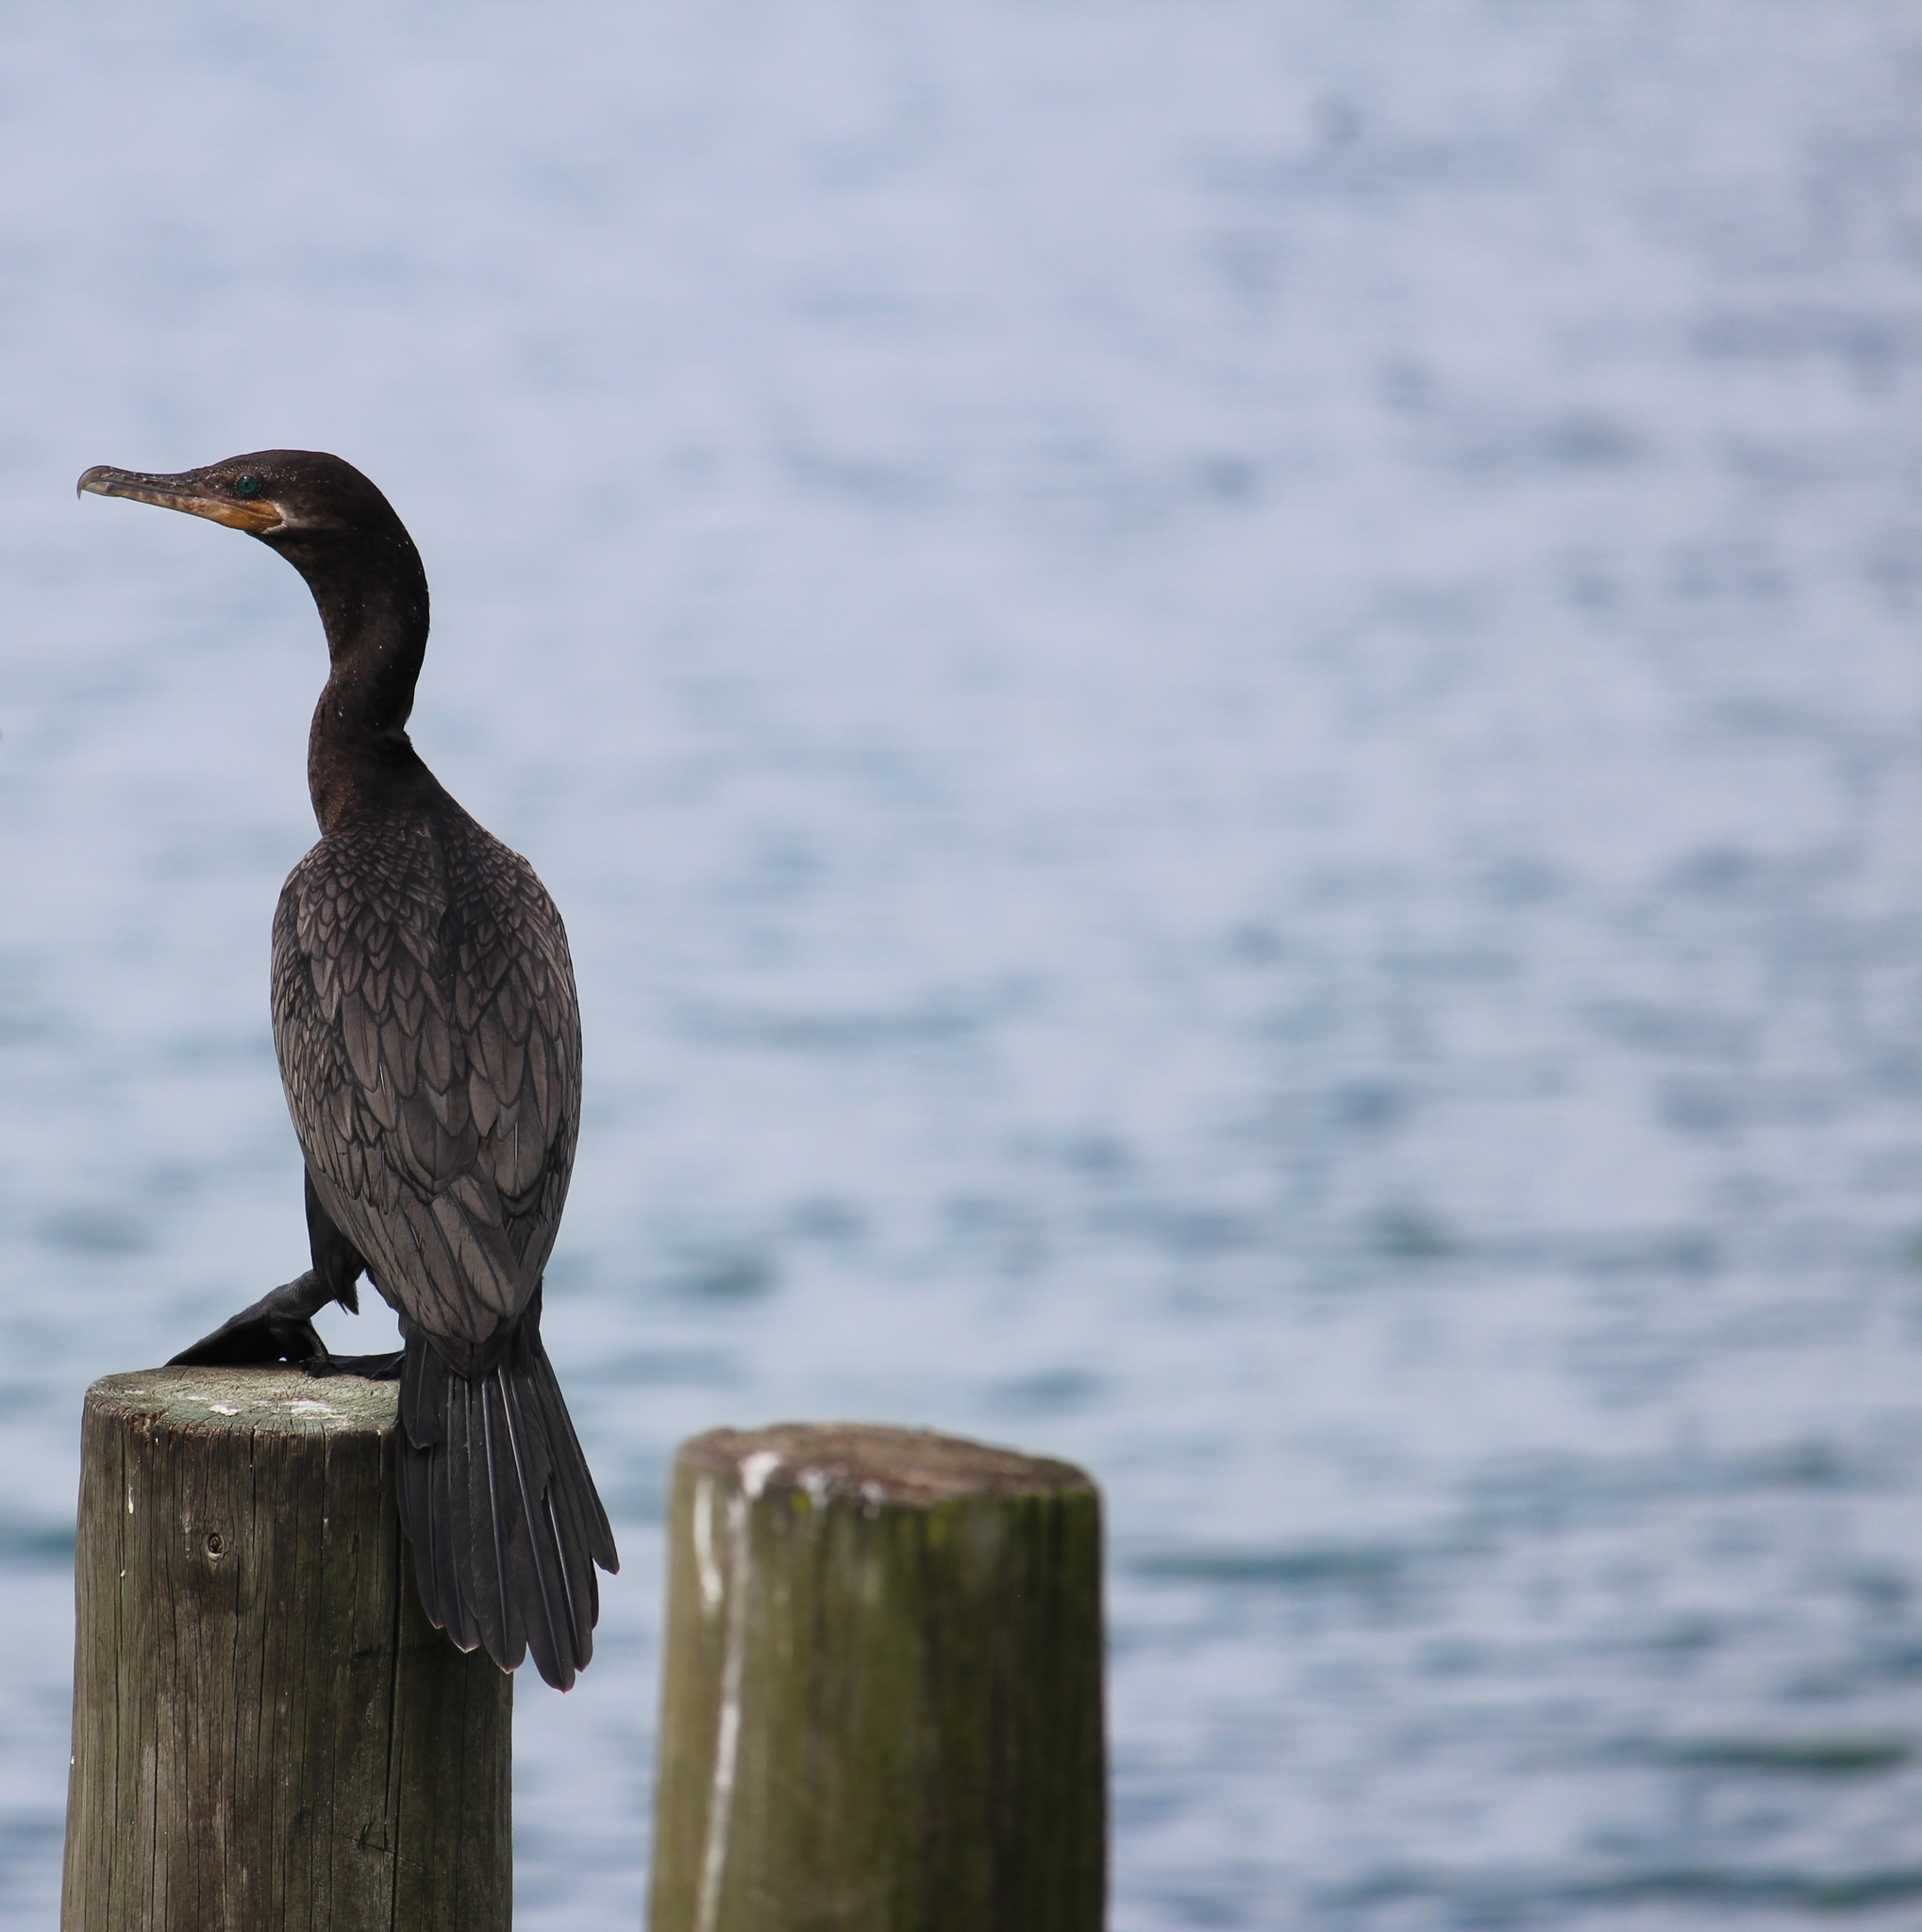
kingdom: Animalia
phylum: Chordata
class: Aves
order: Suliformes
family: Phalacrocoracidae
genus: Phalacrocorax
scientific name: Phalacrocorax brasilianus
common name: Neotropic cormorant
